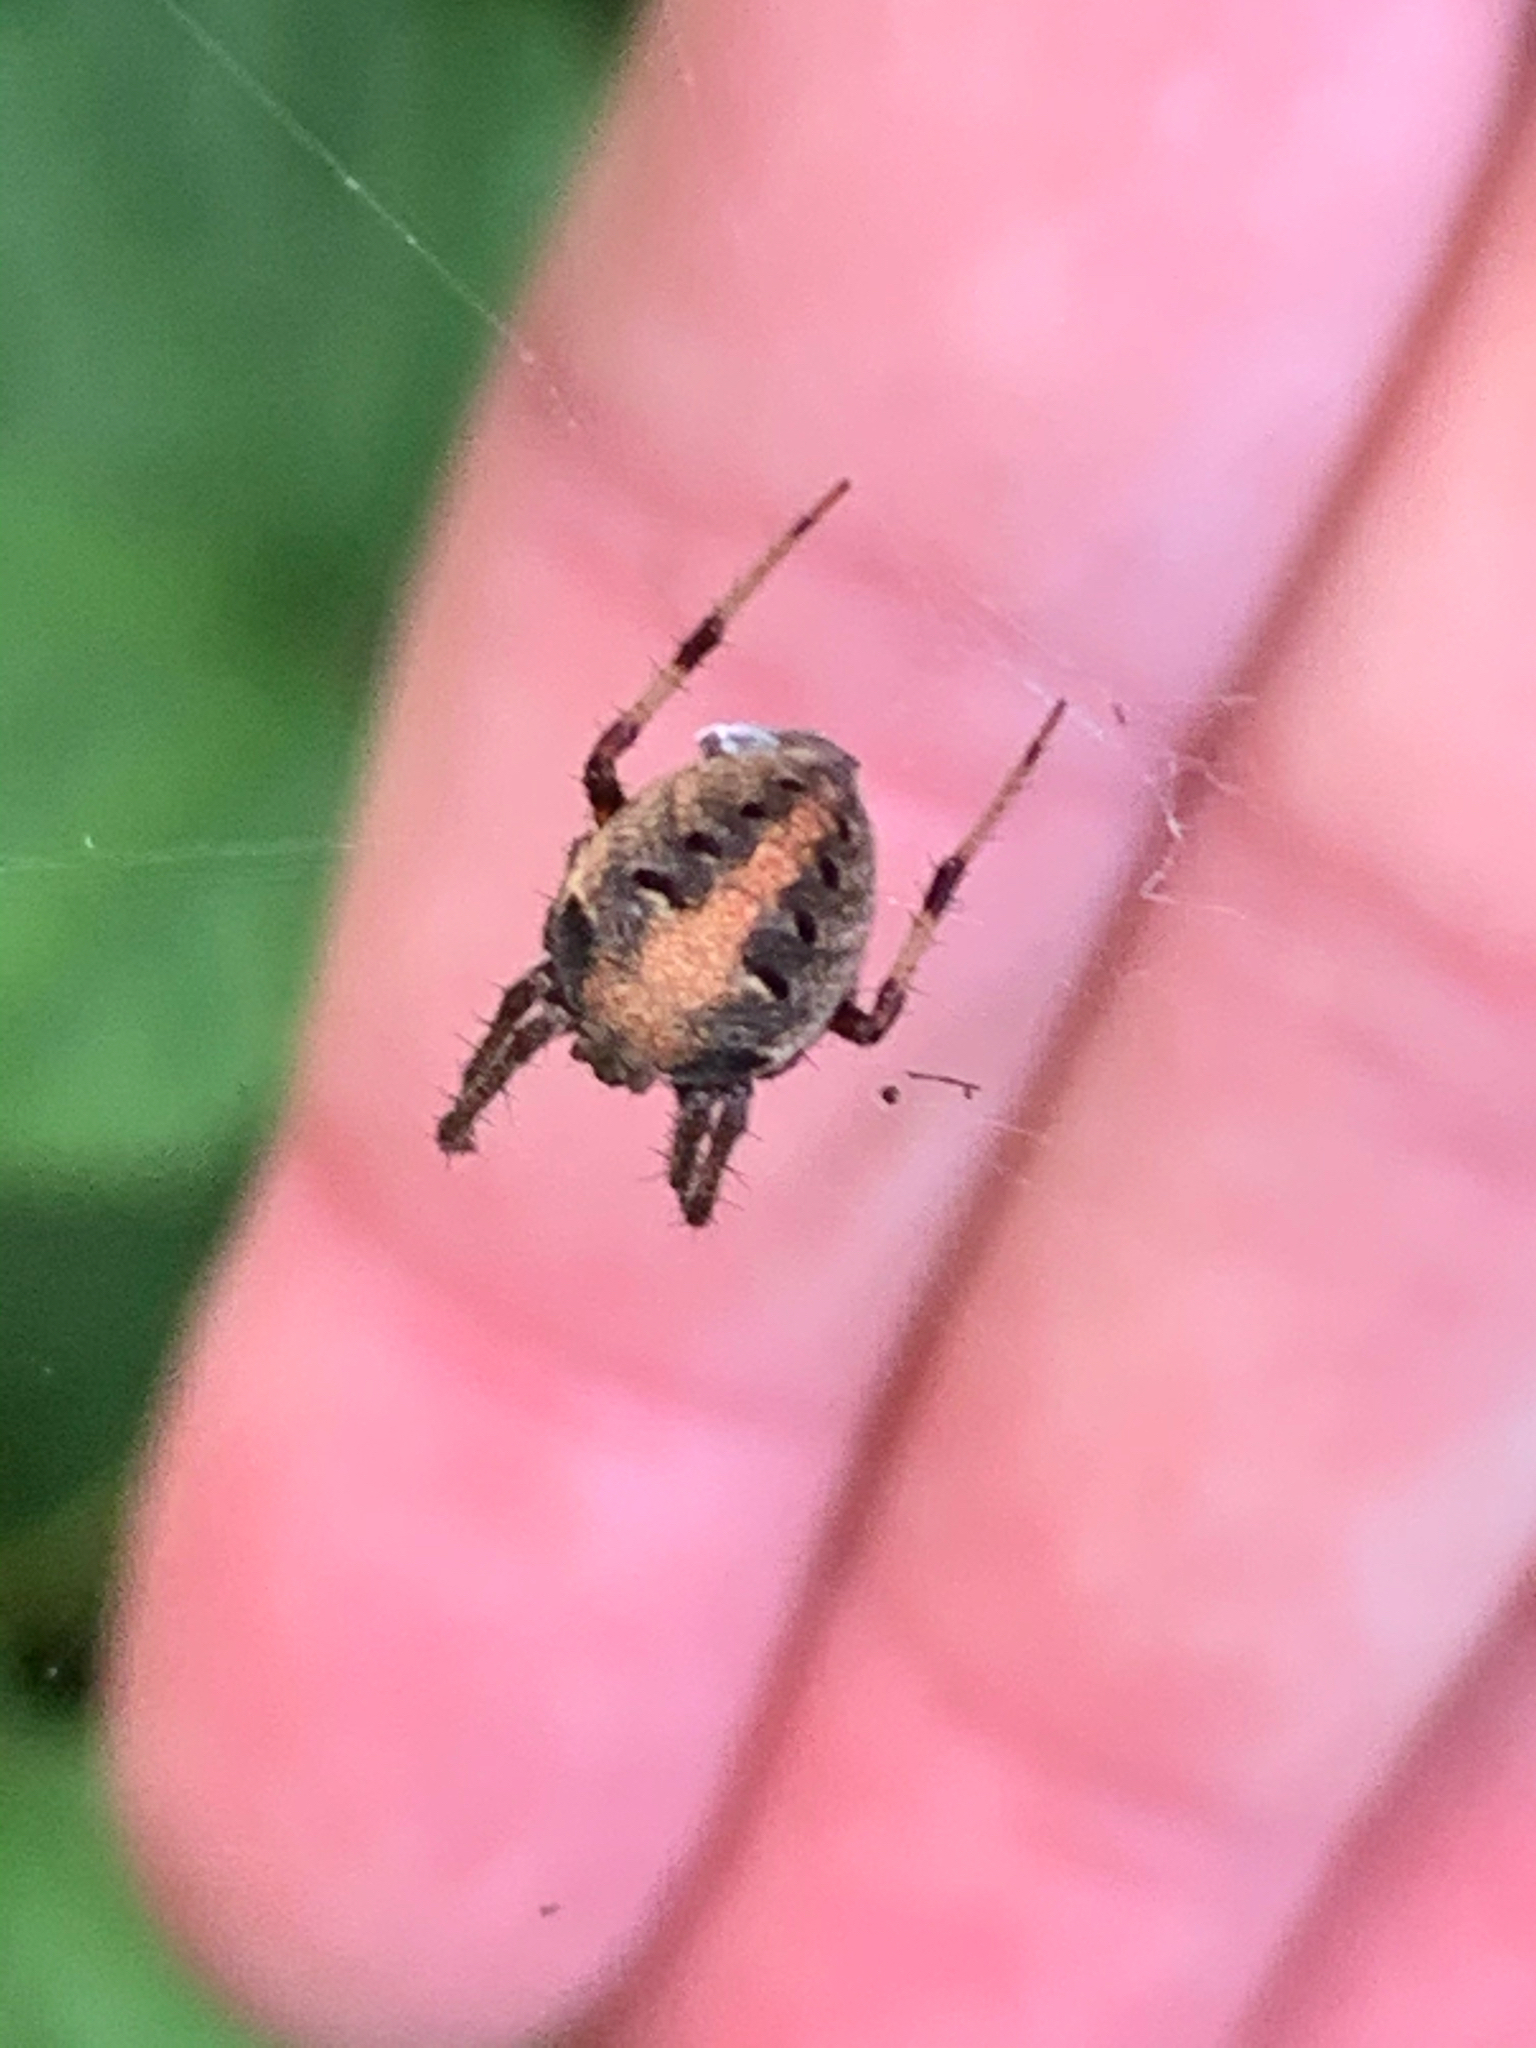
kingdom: Animalia
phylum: Arthropoda
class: Arachnida
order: Araneae
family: Araneidae
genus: Neoscona
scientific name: Neoscona arabesca
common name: Orb weavers
